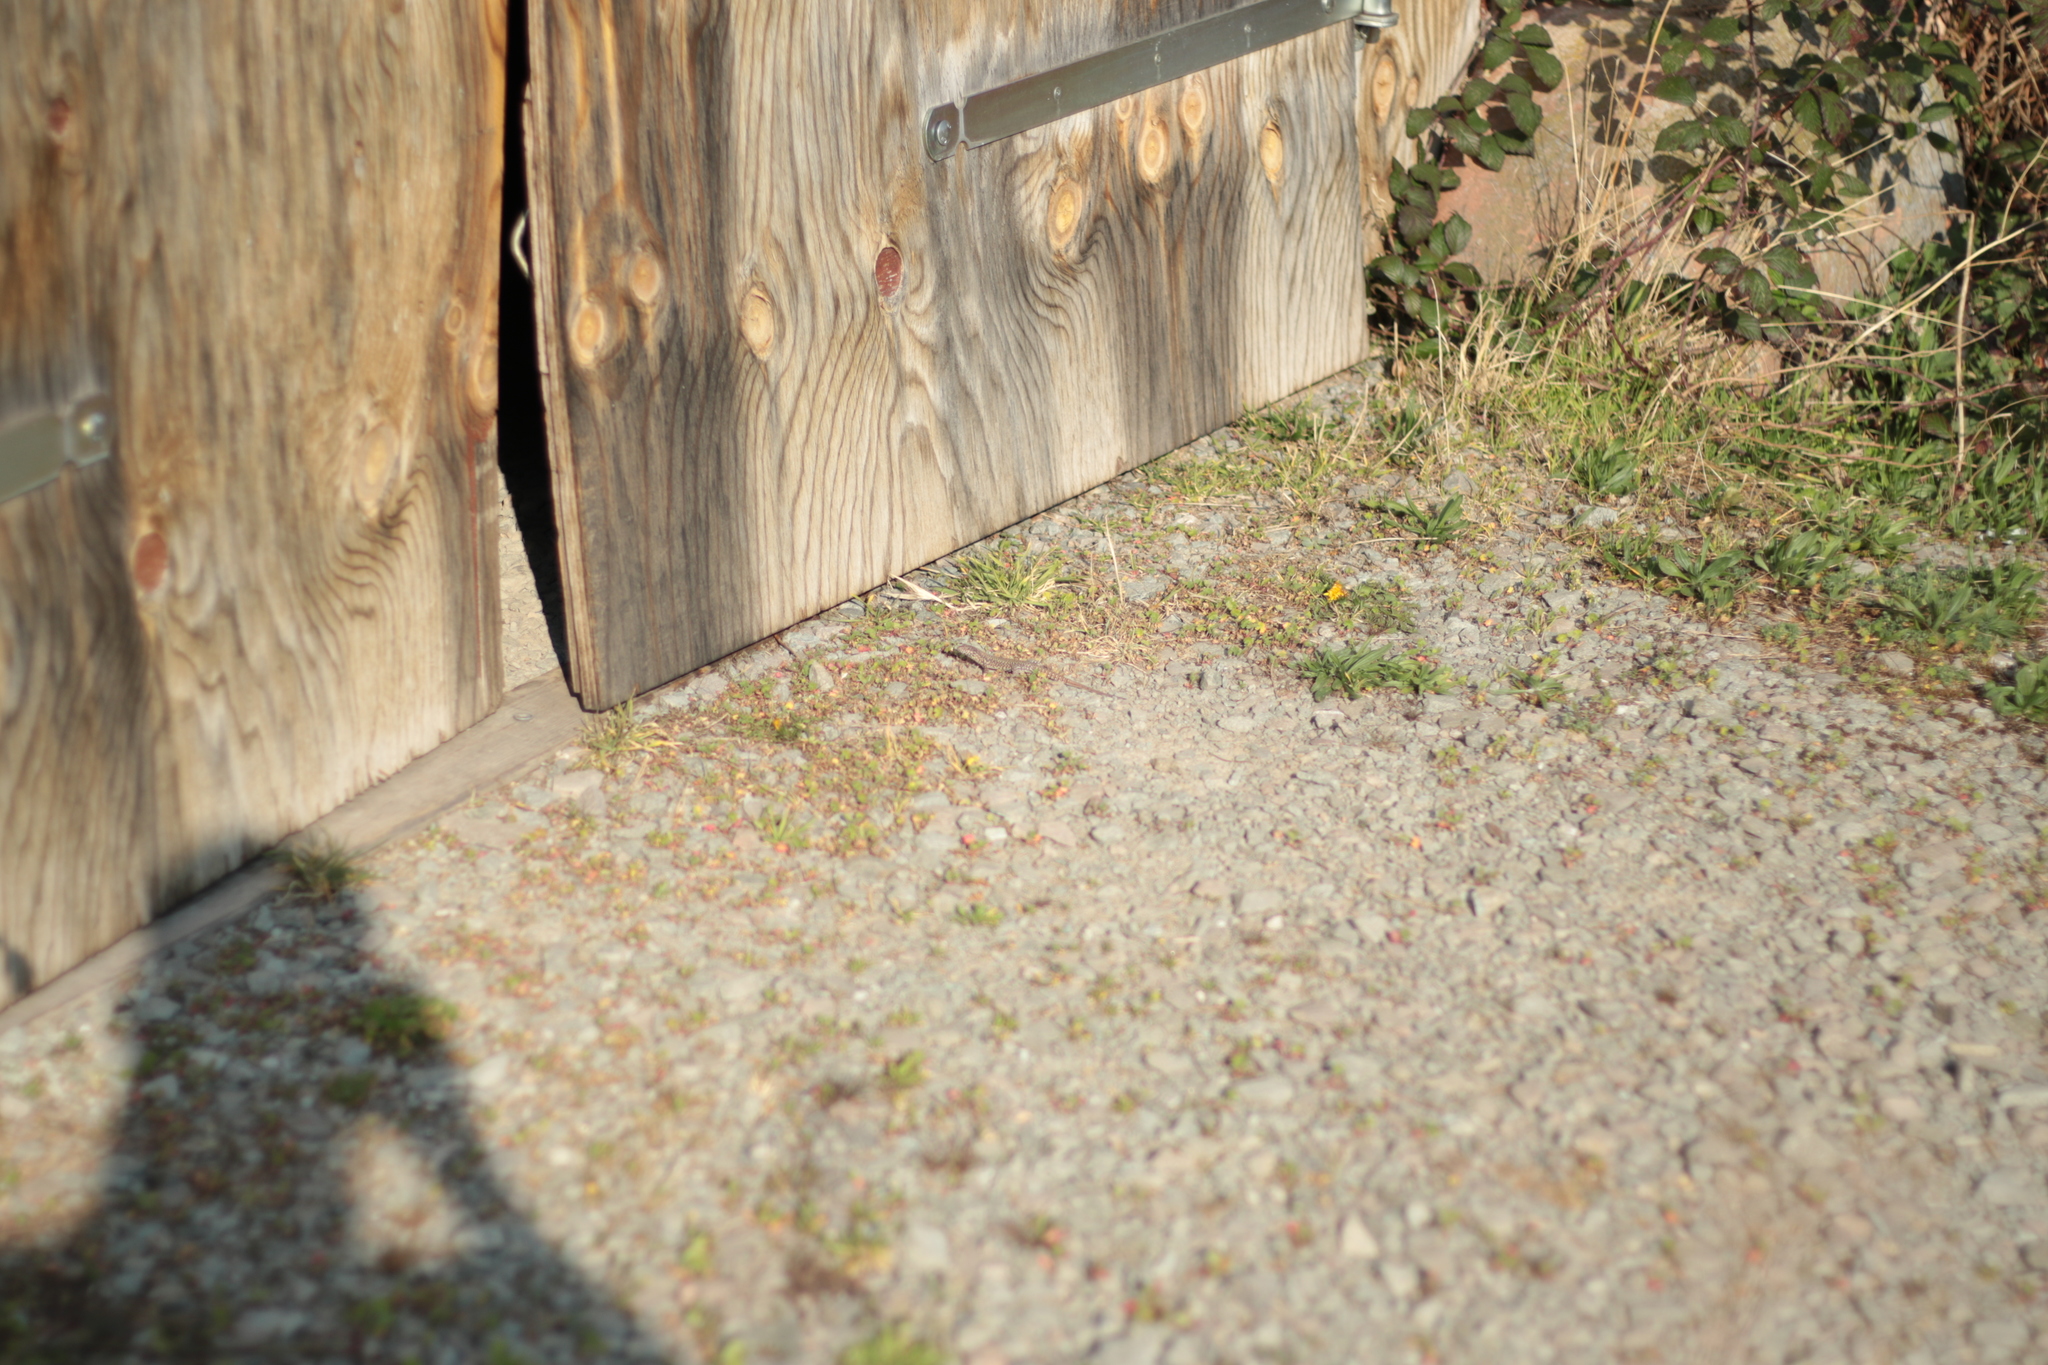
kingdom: Animalia
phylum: Chordata
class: Squamata
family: Lacertidae
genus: Podarcis
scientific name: Podarcis muralis
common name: Common wall lizard
